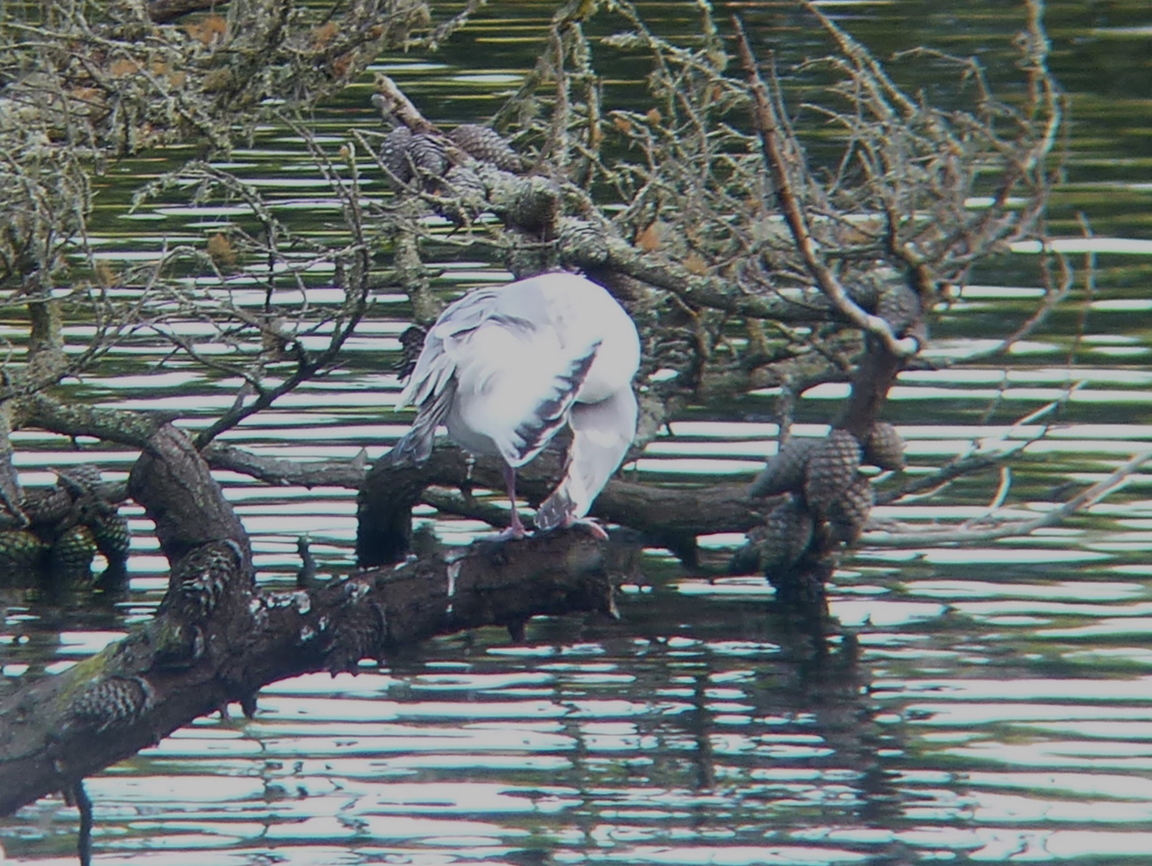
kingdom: Animalia
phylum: Chordata
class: Aves
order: Charadriiformes
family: Laridae
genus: Larus
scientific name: Larus
